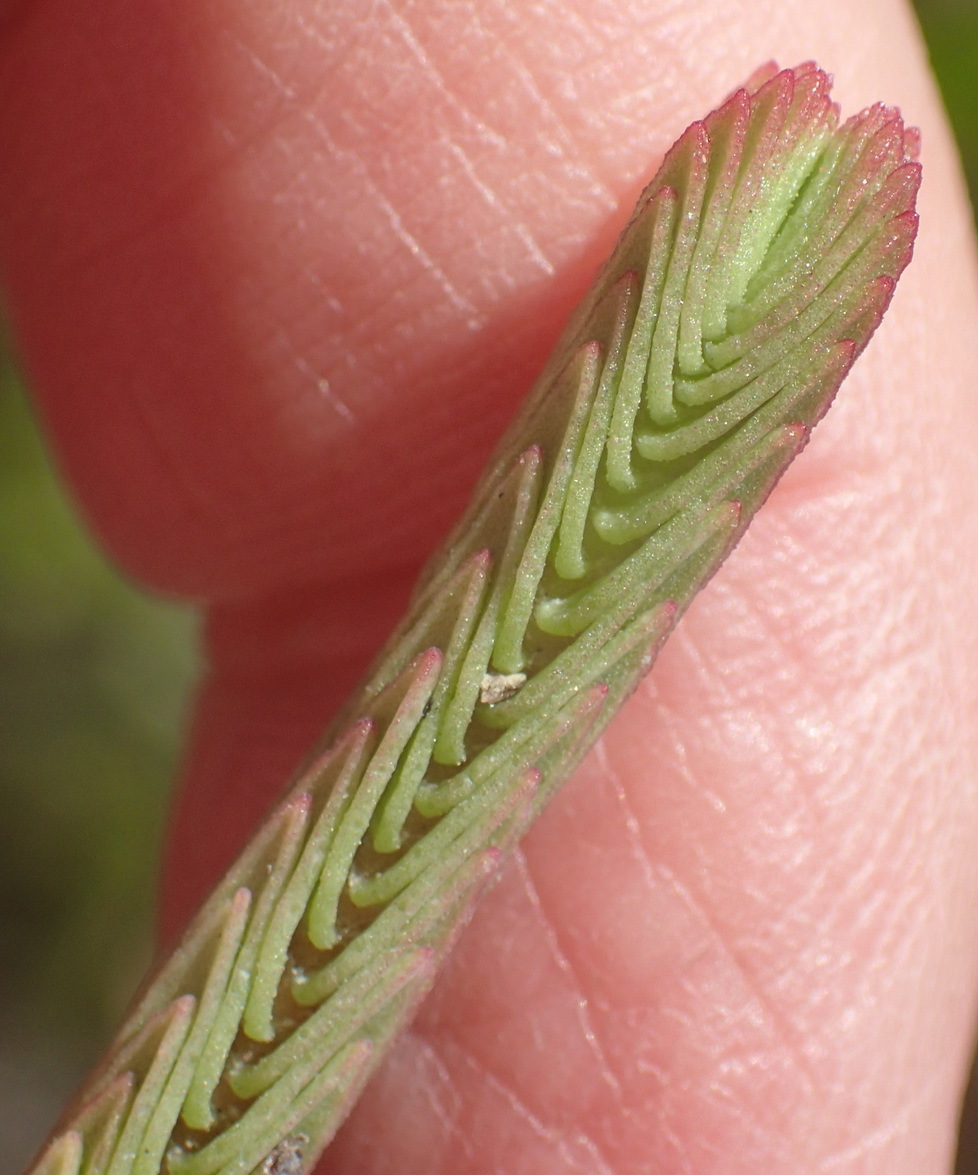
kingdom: Plantae
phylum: Tracheophyta
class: Magnoliopsida
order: Saxifragales
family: Crassulaceae
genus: Crassula
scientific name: Crassula ericoides
